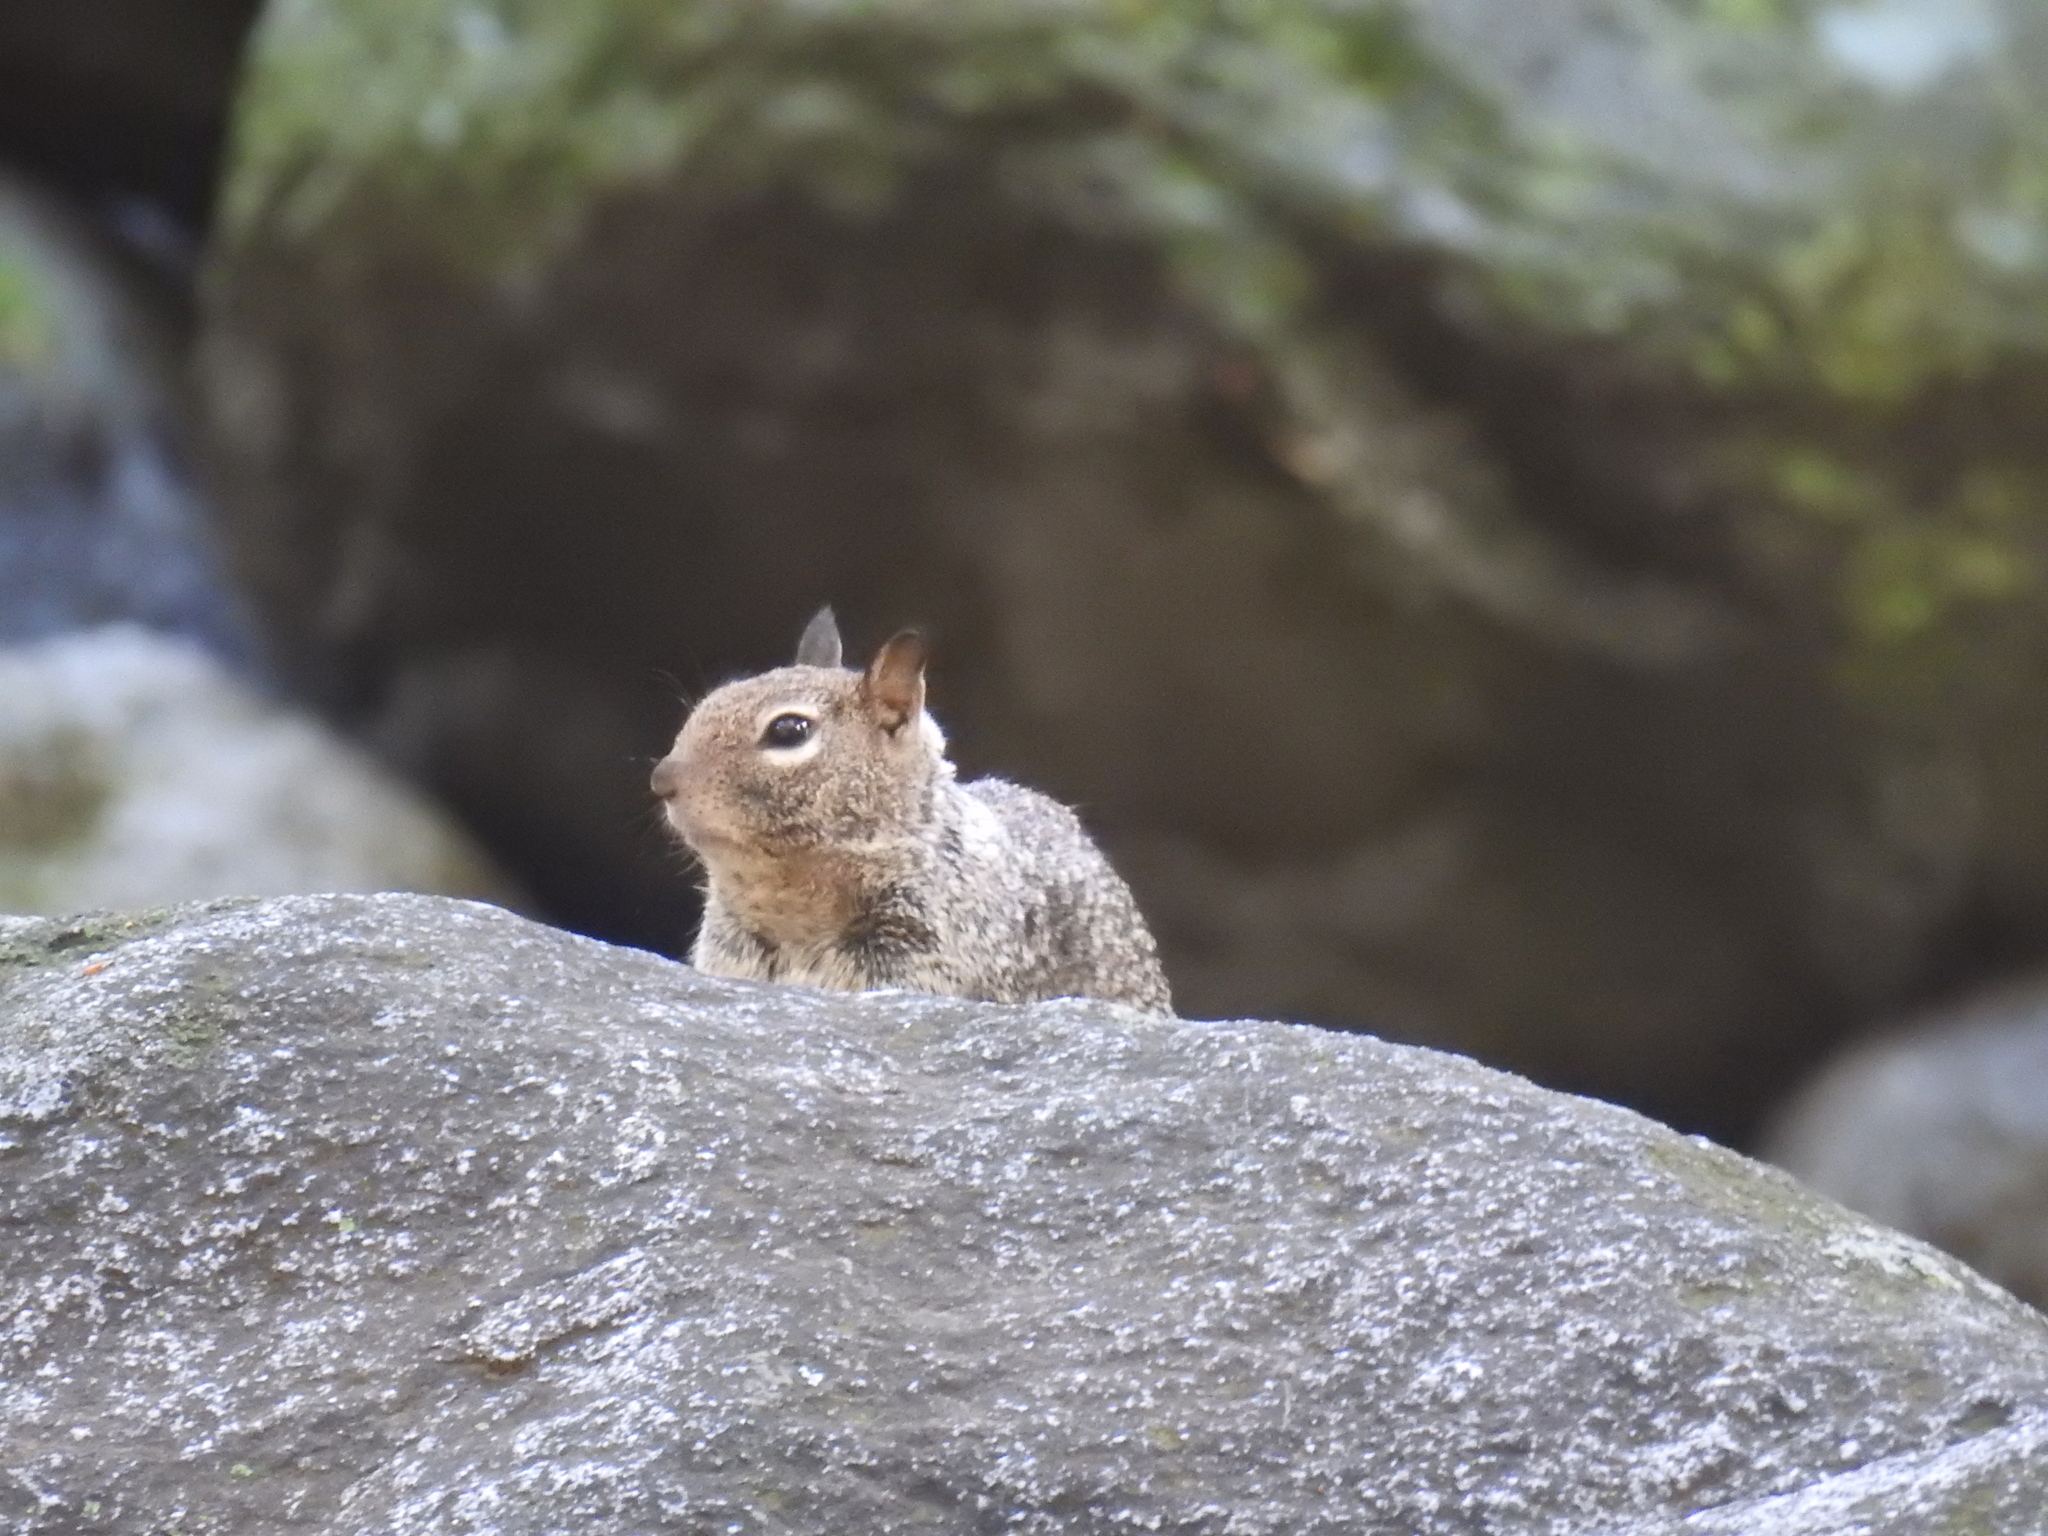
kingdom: Animalia
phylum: Chordata
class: Mammalia
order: Rodentia
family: Sciuridae
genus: Otospermophilus
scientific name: Otospermophilus beecheyi
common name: California ground squirrel
